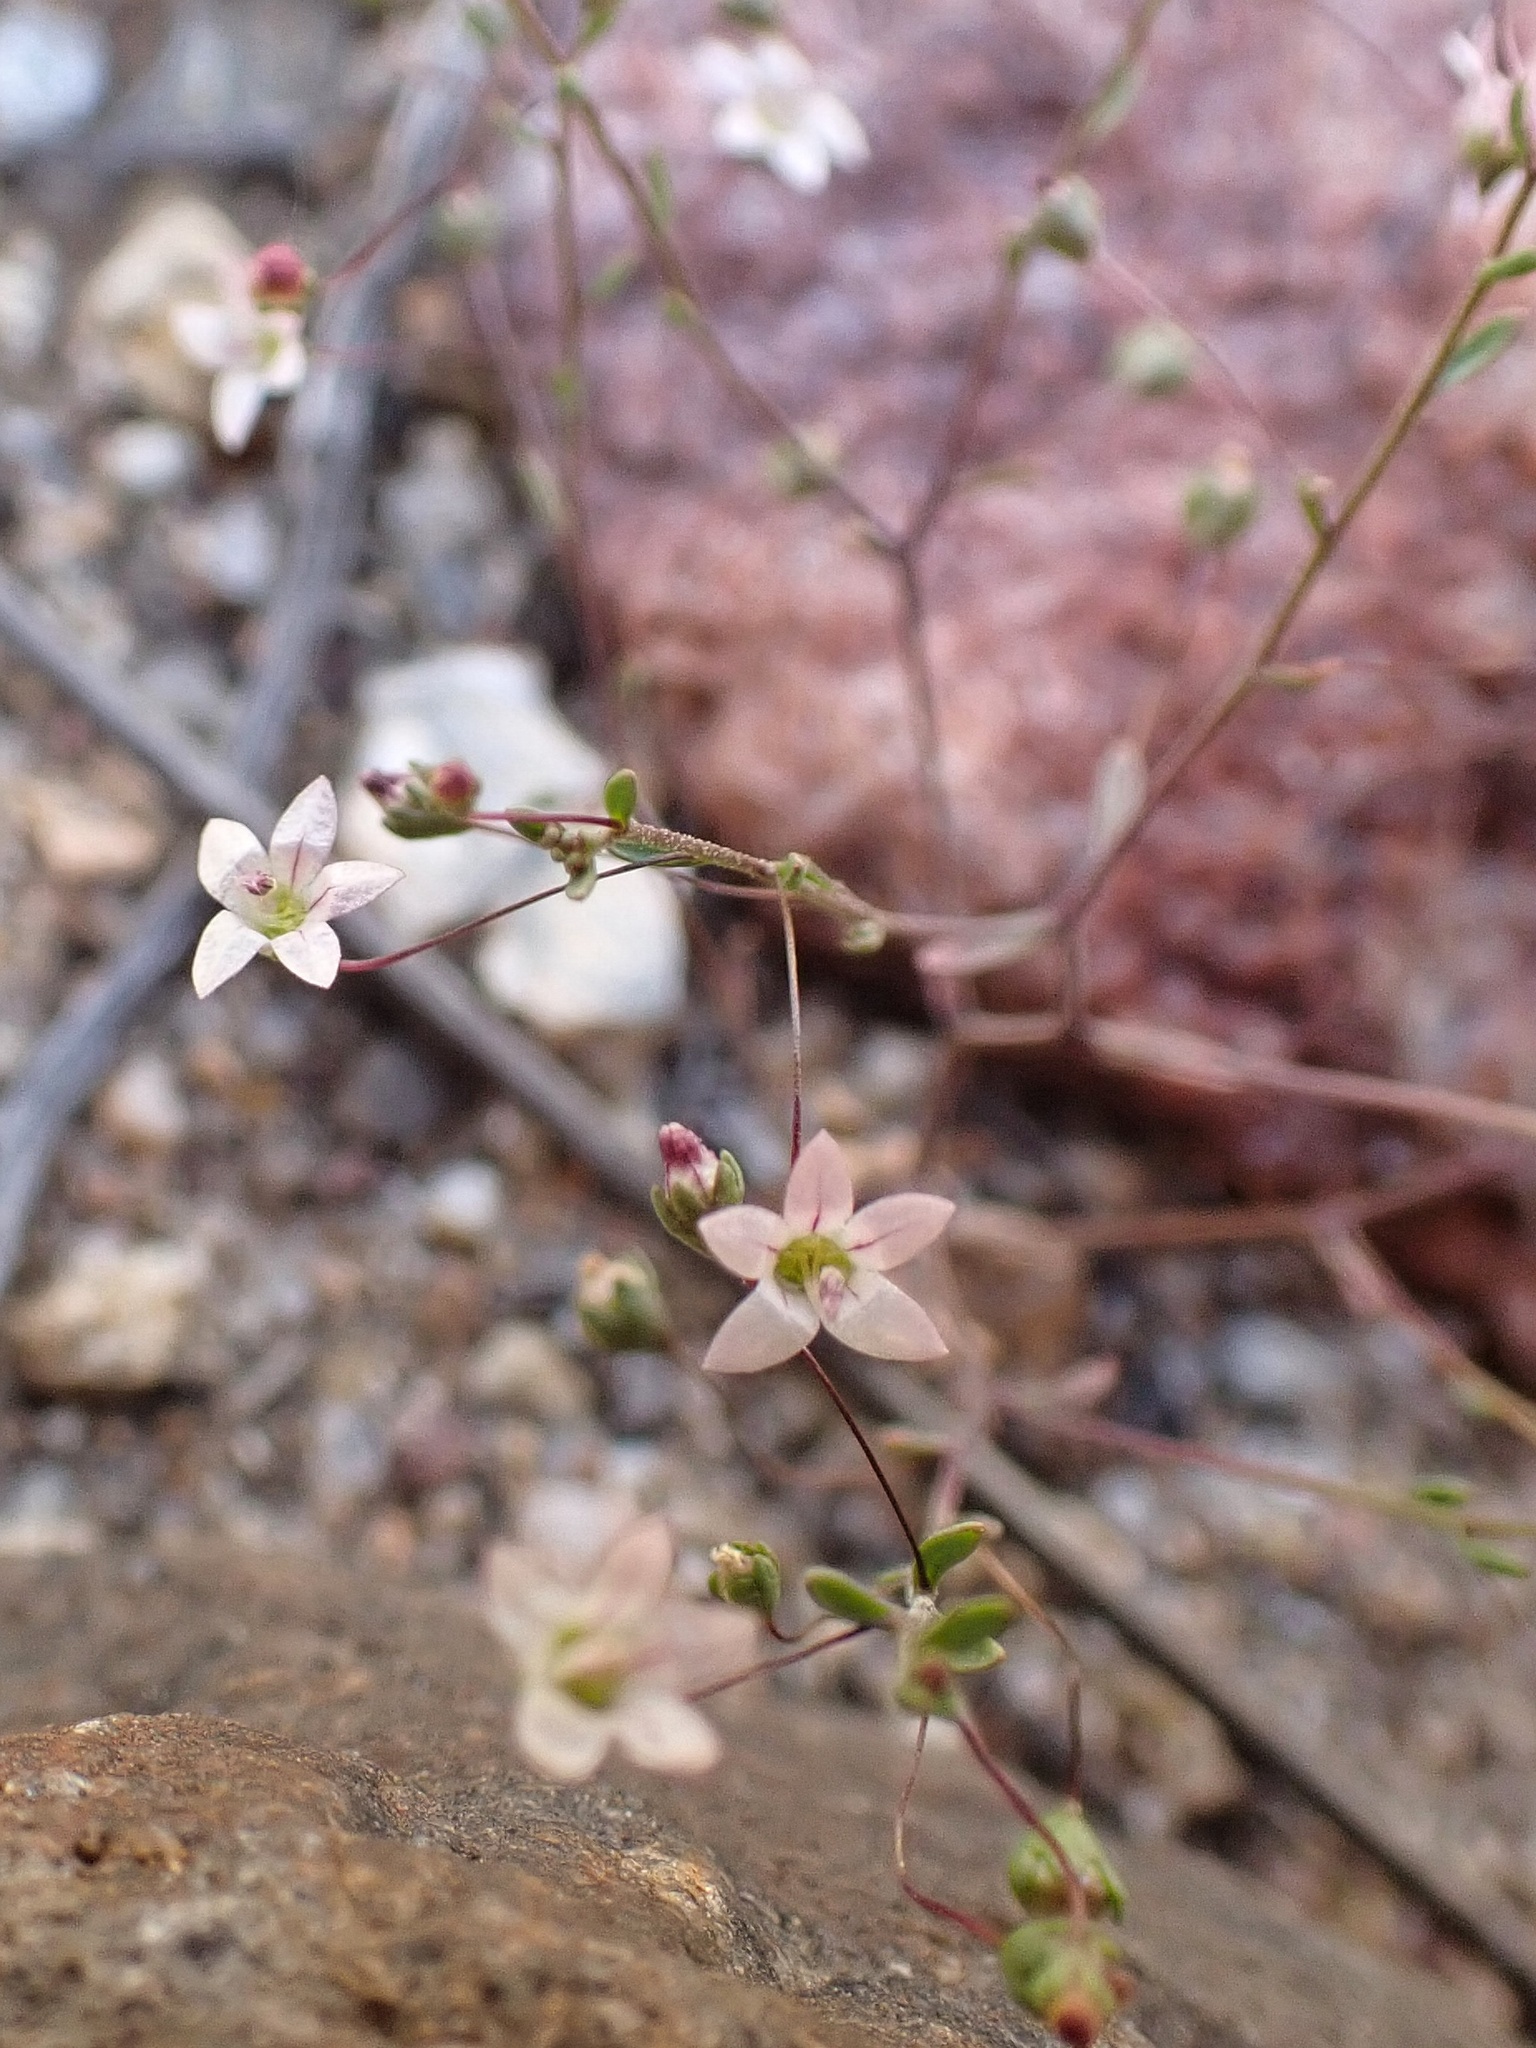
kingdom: Plantae
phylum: Tracheophyta
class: Magnoliopsida
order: Asterales
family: Campanulaceae
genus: Nemacladus
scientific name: Nemacladus ramosissimus
